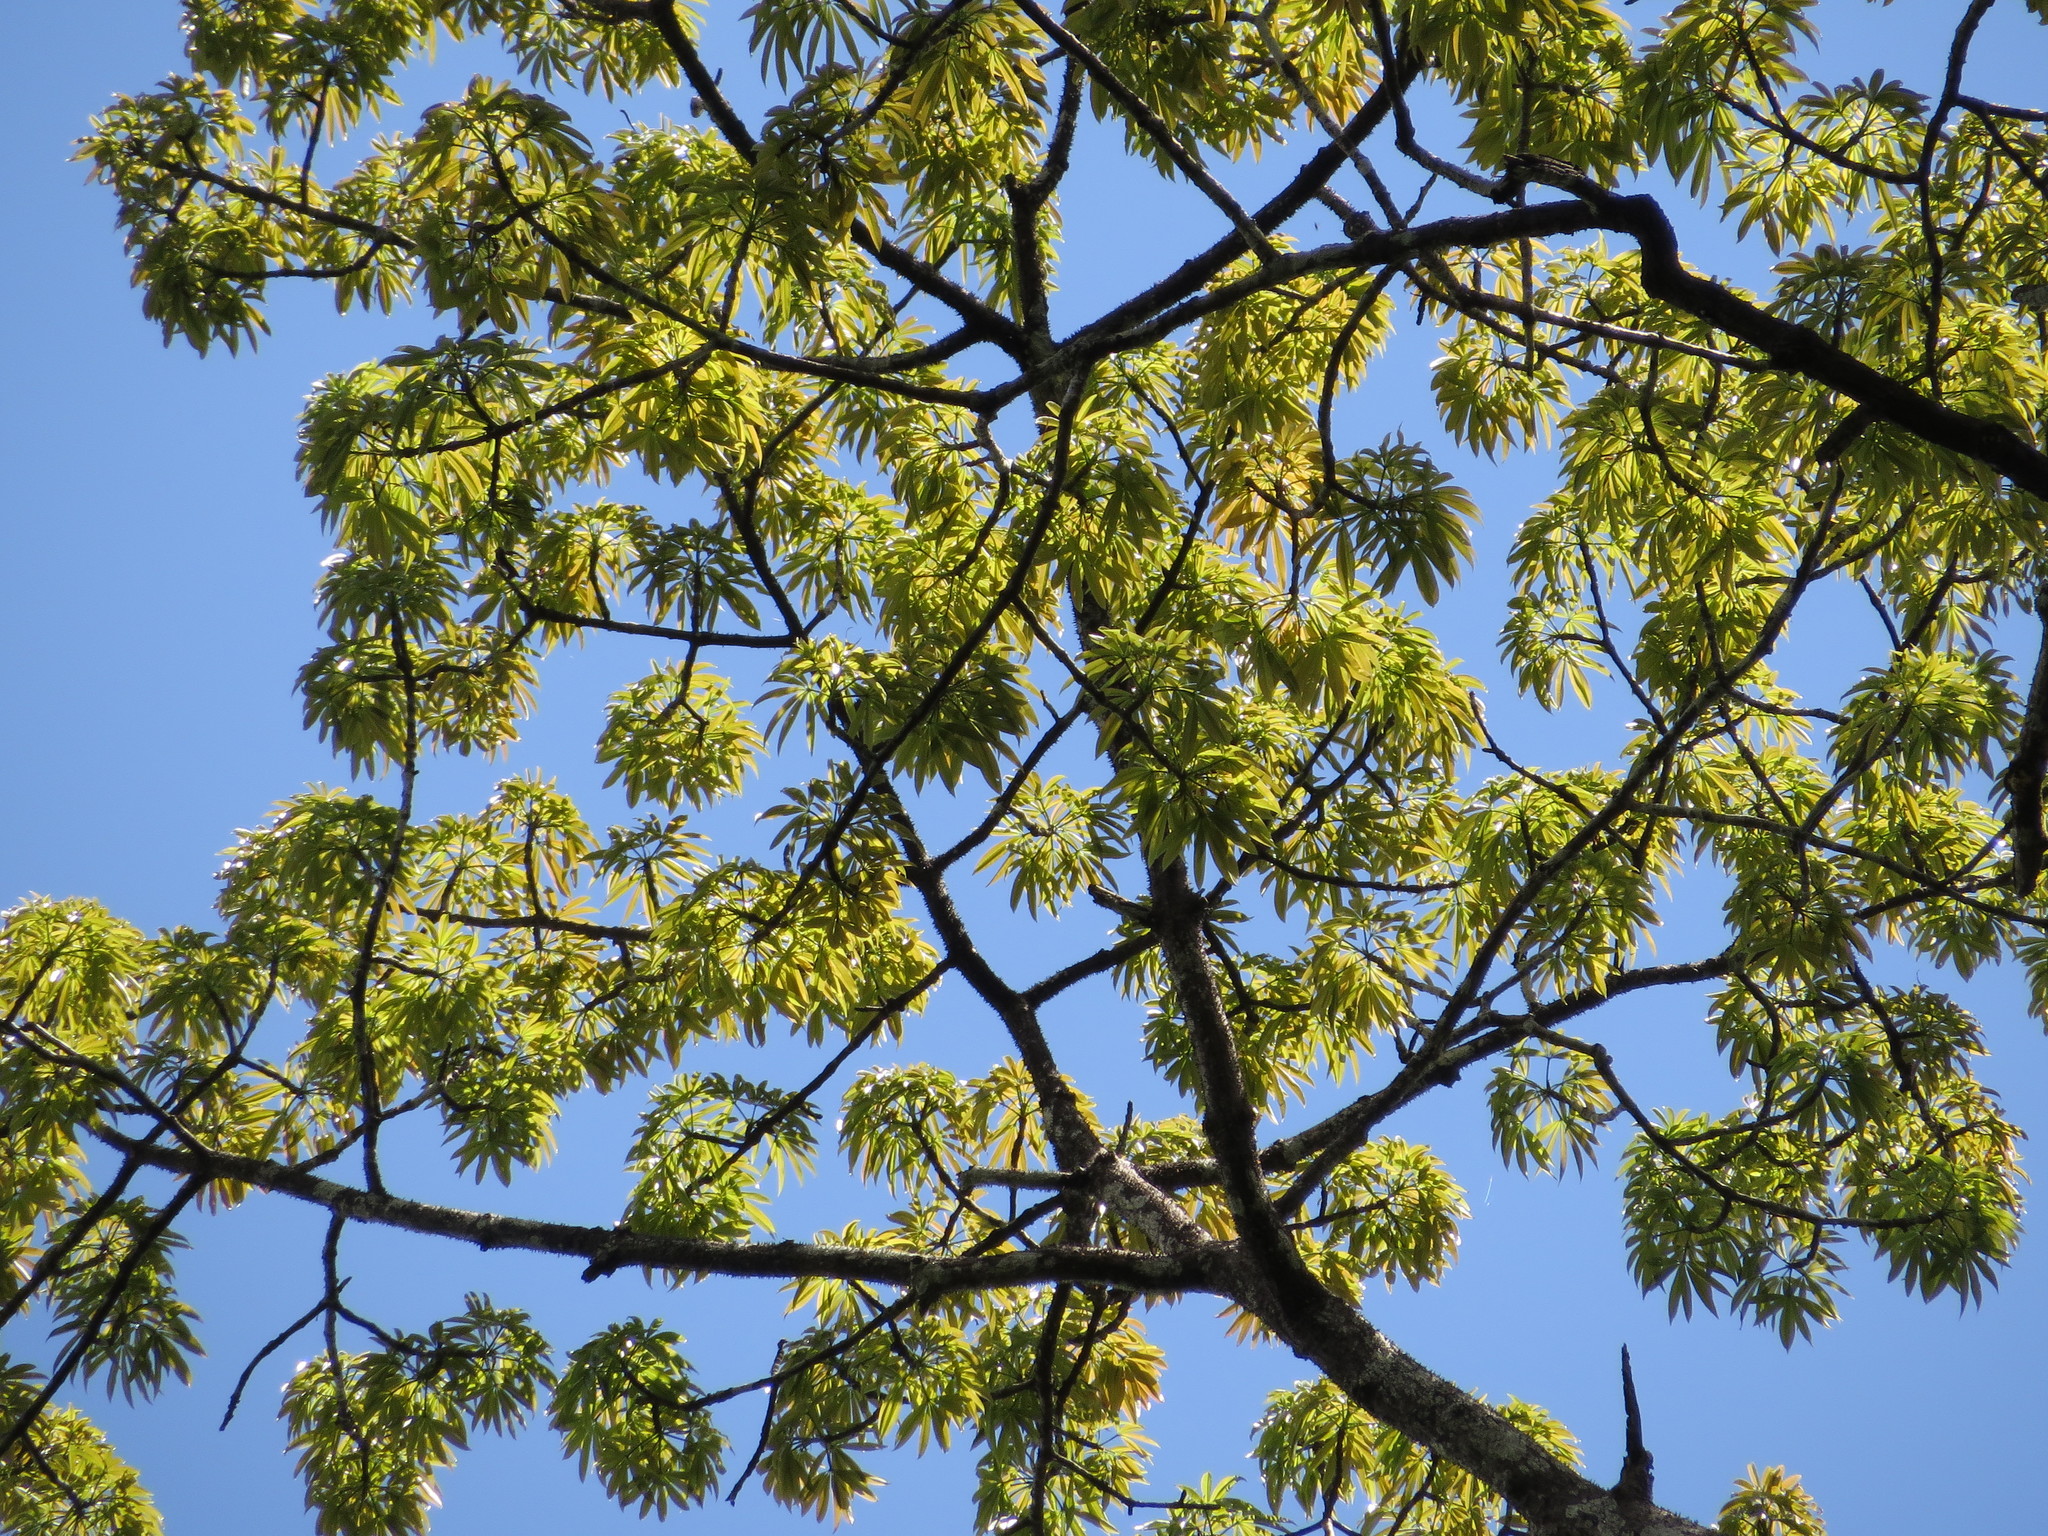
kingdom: Plantae
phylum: Tracheophyta
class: Magnoliopsida
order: Malvales
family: Malvaceae
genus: Ceiba
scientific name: Ceiba pentandra
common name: Kapok
